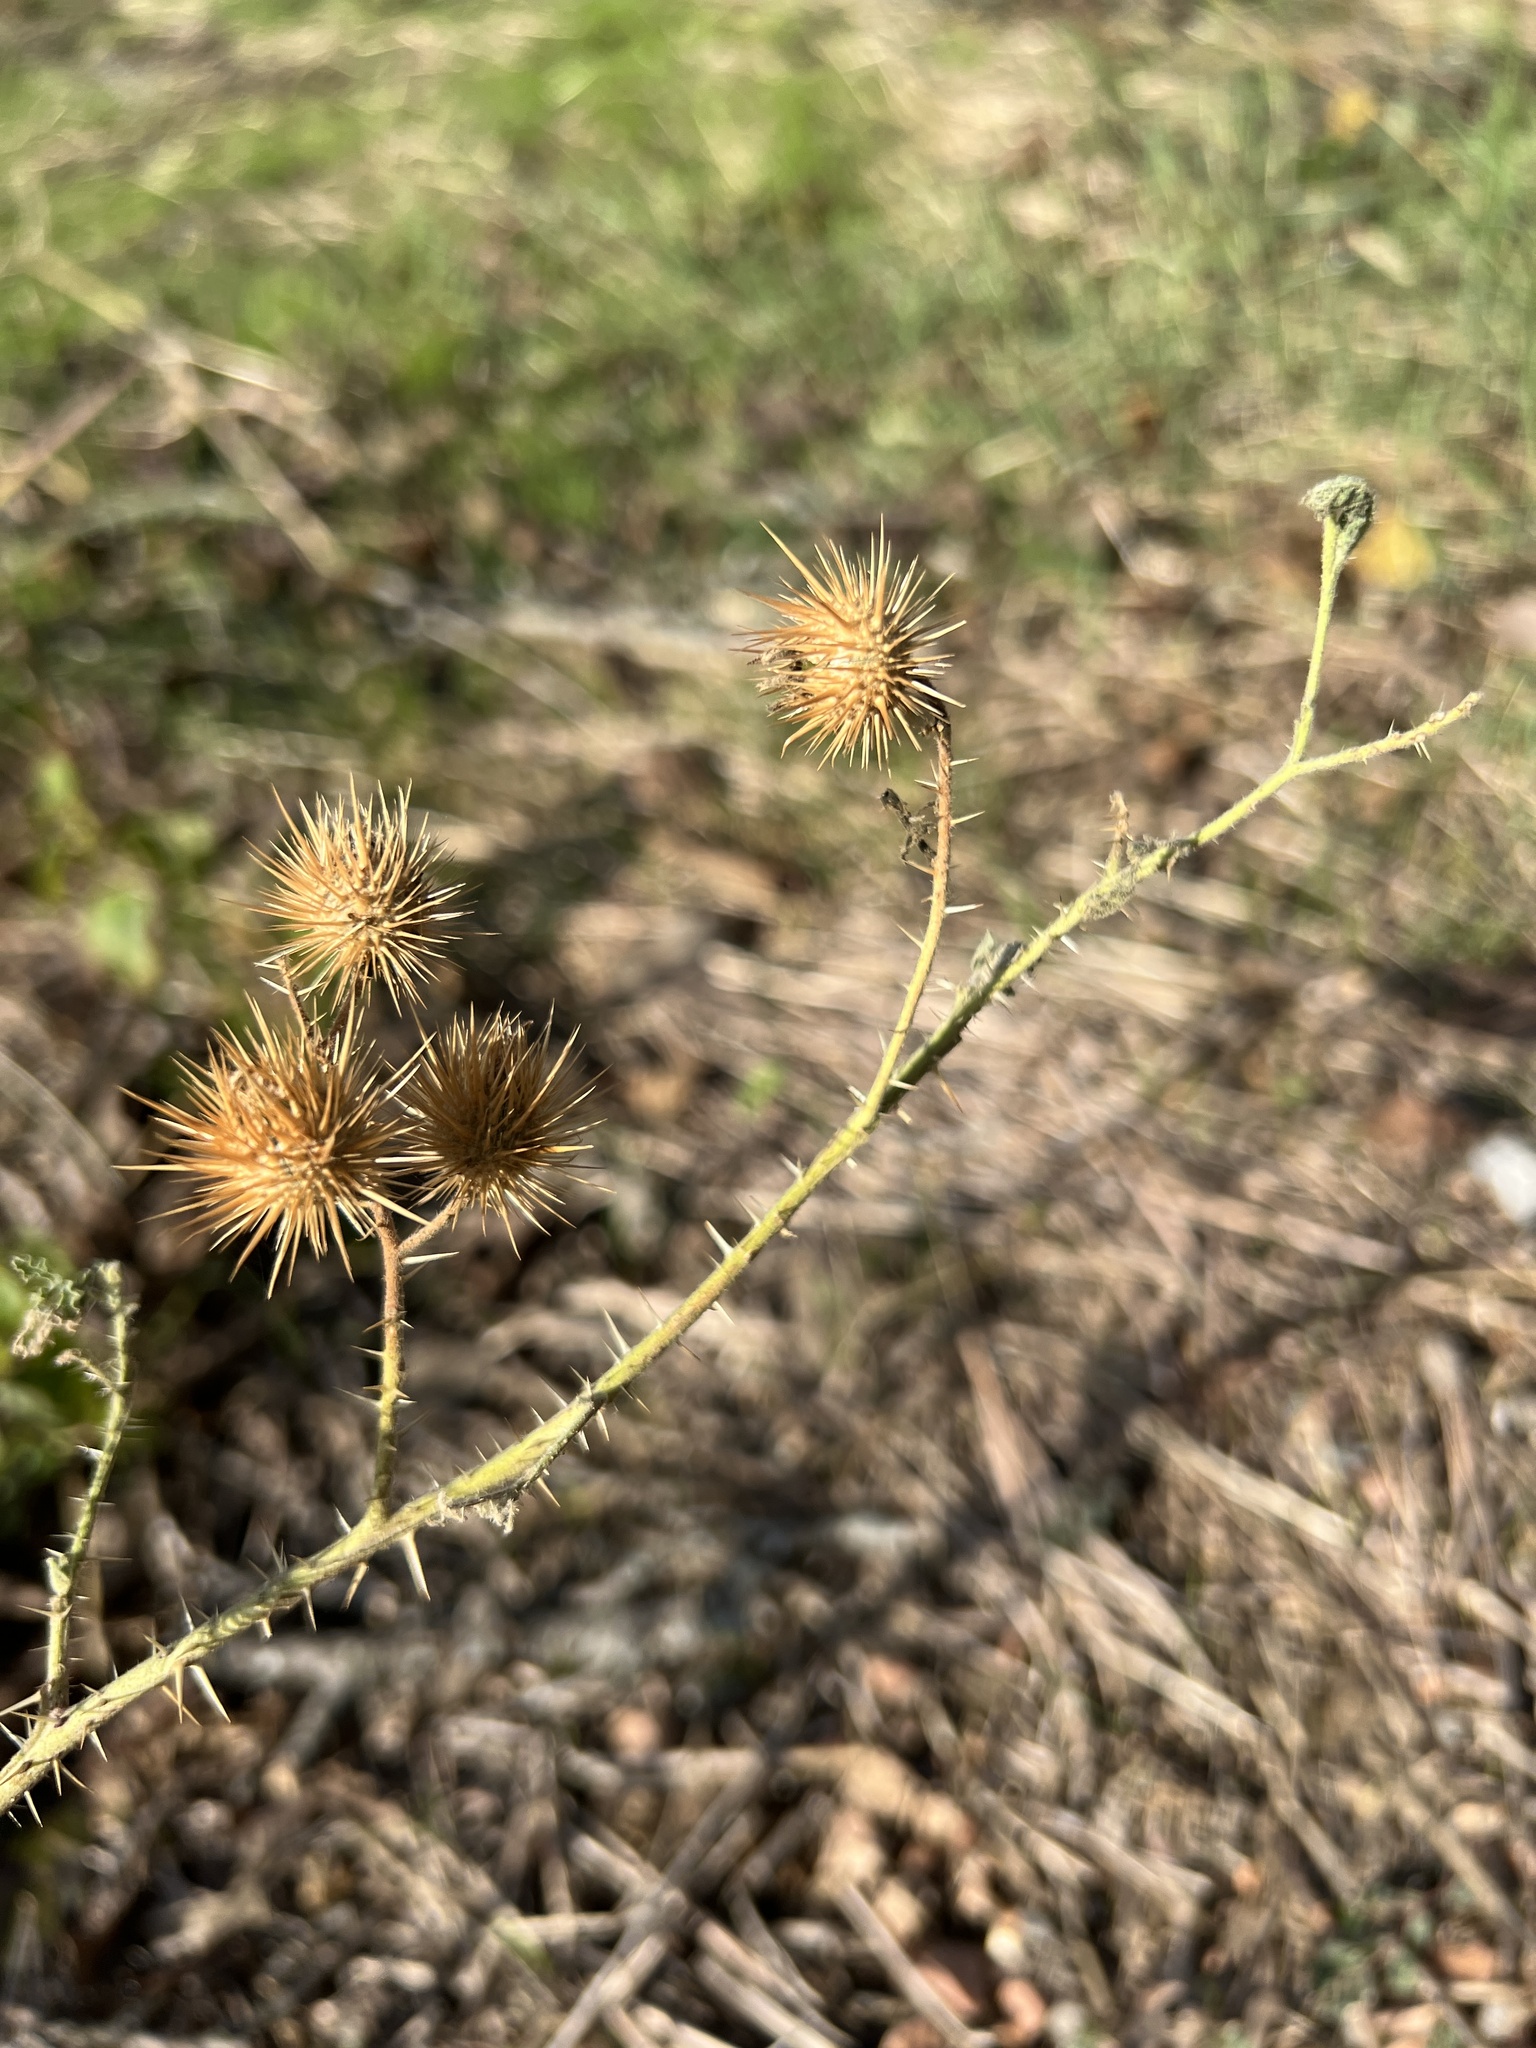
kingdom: Plantae
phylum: Tracheophyta
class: Magnoliopsida
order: Solanales
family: Solanaceae
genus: Solanum
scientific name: Solanum angustifolium
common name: Buffalobur nightshade
